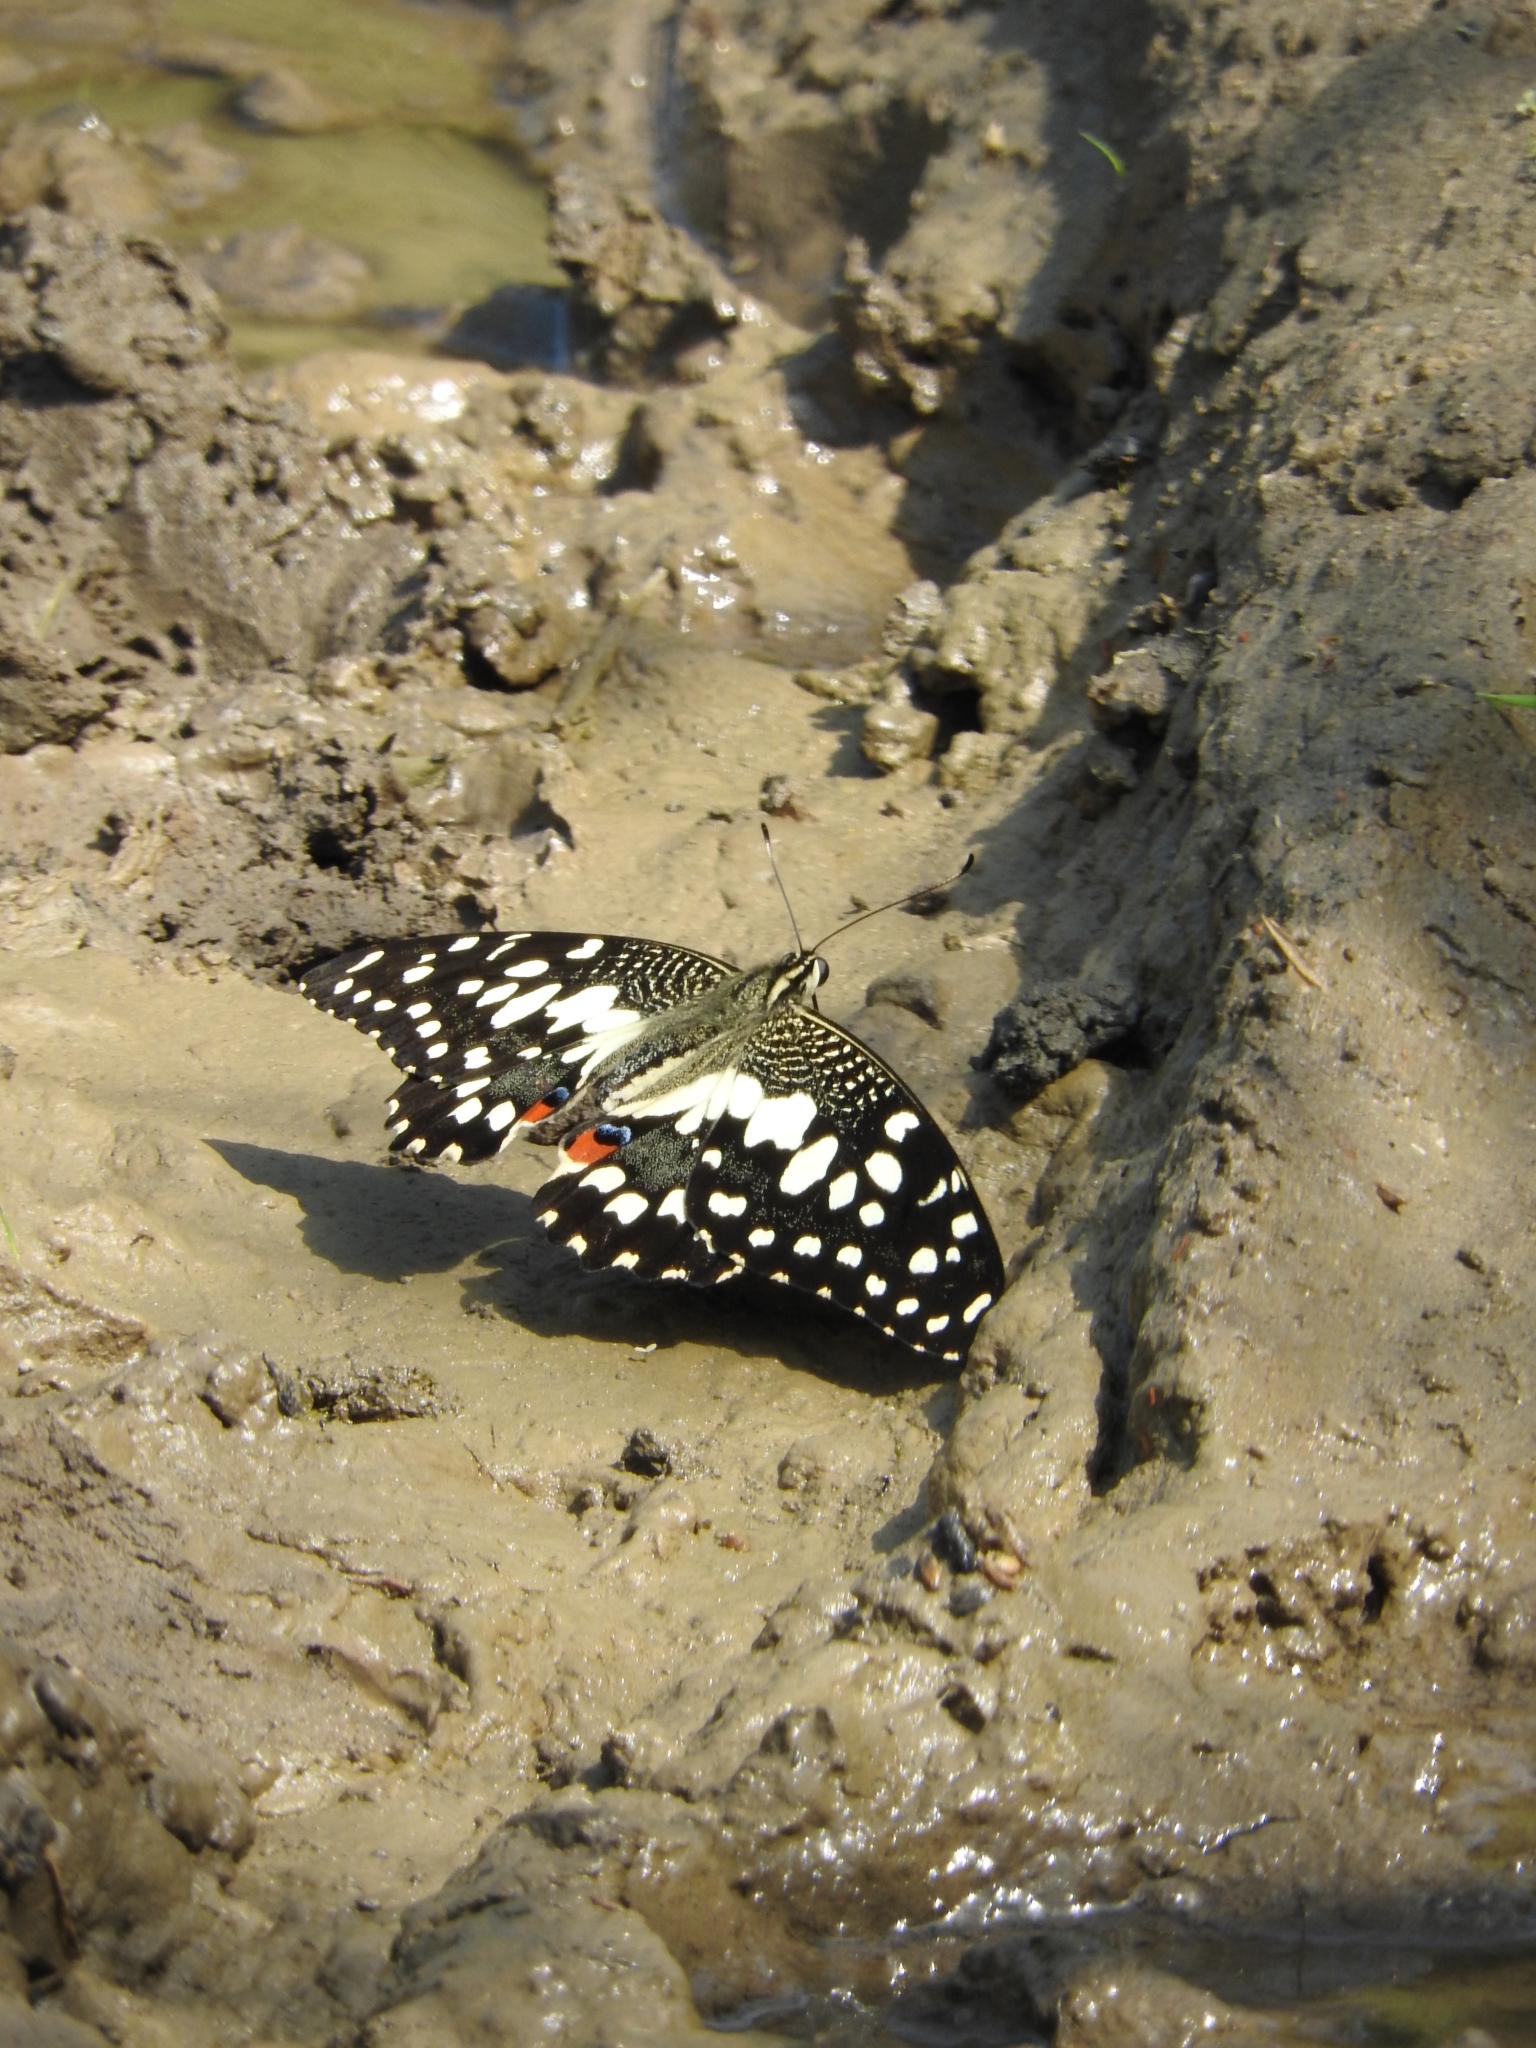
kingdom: Animalia
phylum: Arthropoda
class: Insecta
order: Lepidoptera
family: Papilionidae
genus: Papilio
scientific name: Papilio demoleus
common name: Lime butterfly
